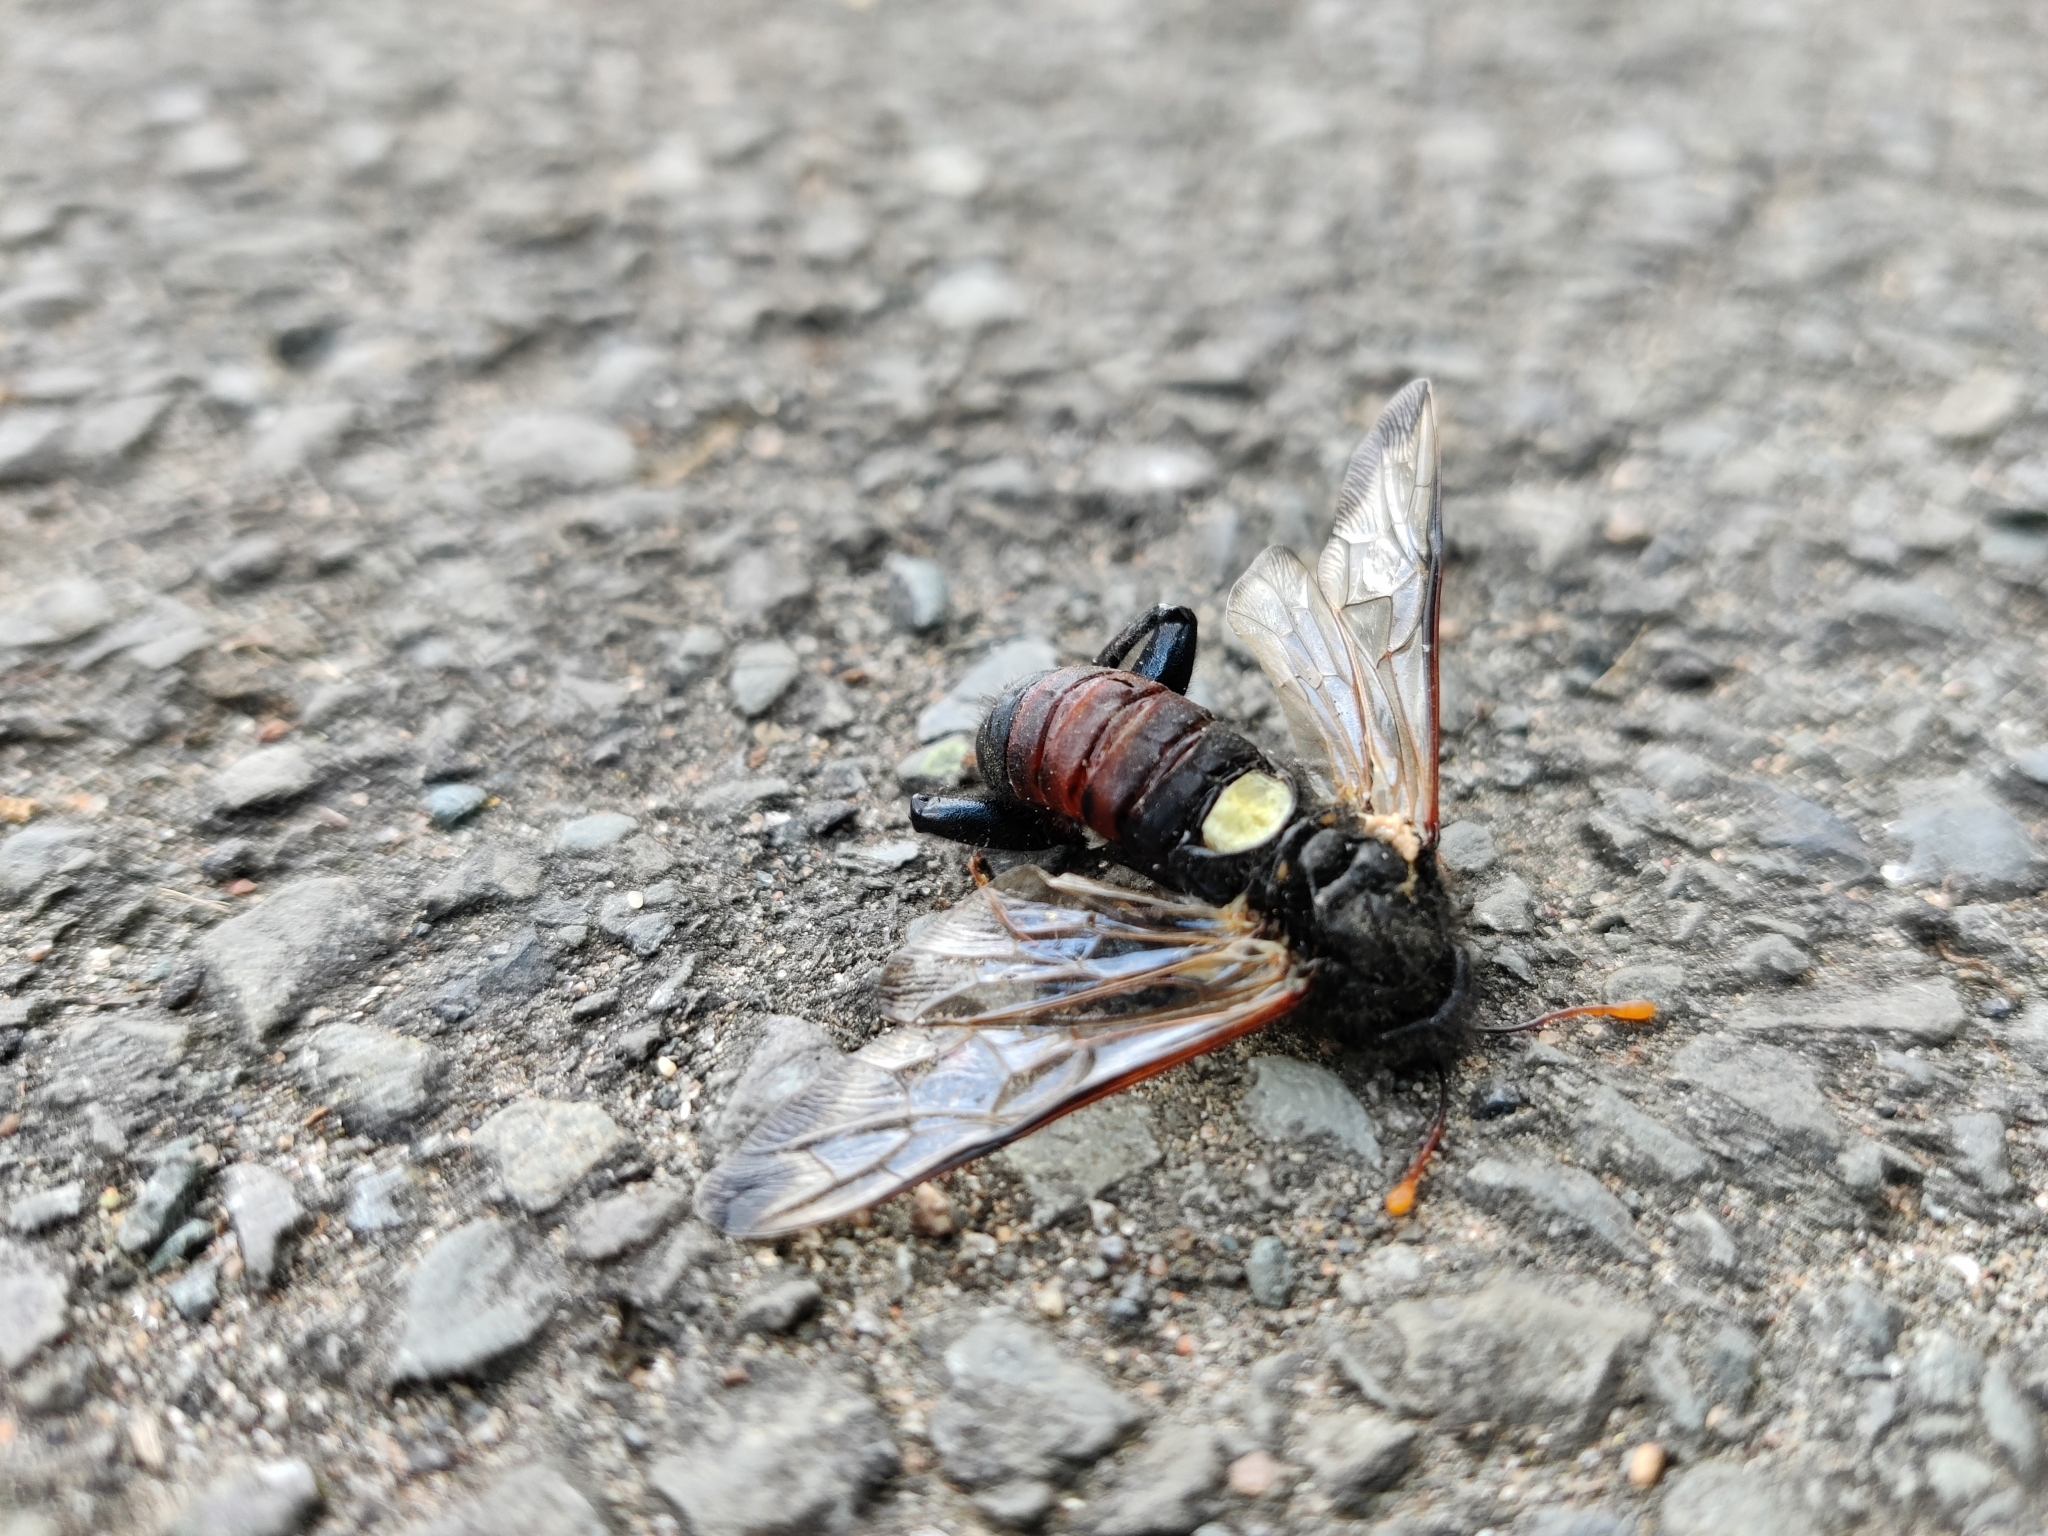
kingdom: Animalia
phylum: Arthropoda
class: Insecta
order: Hymenoptera
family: Cimbicidae
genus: Cimbex
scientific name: Cimbex femoratus
